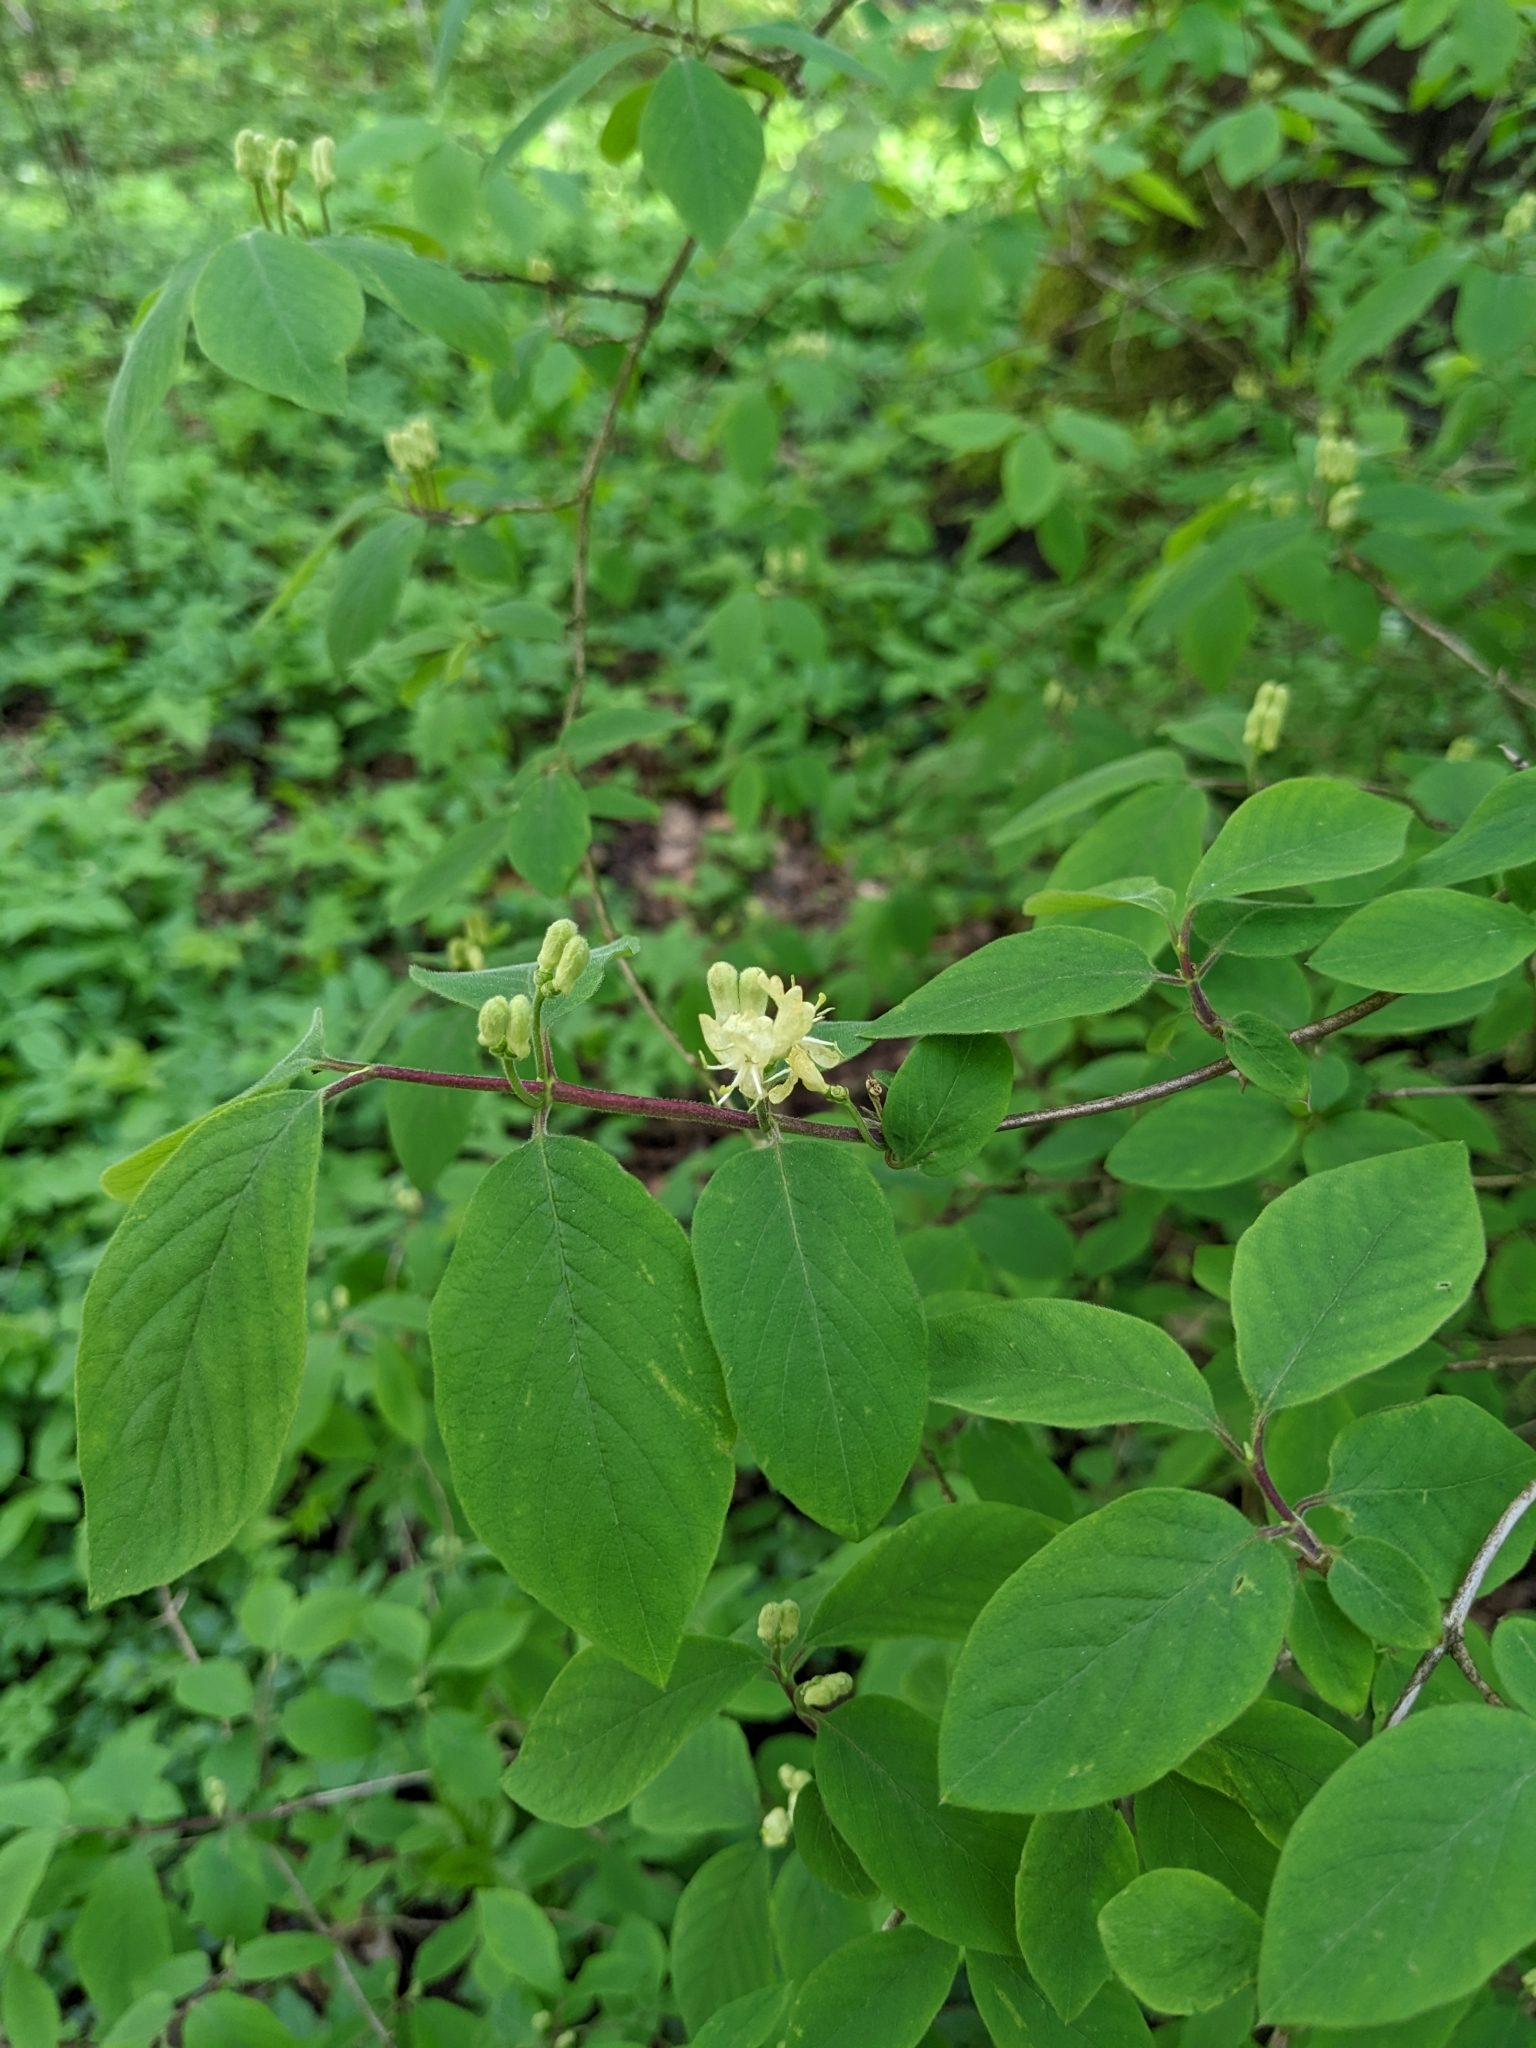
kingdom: Plantae
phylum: Tracheophyta
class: Magnoliopsida
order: Dipsacales
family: Caprifoliaceae
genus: Lonicera
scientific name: Lonicera xylosteum
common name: Fly honeysuckle
